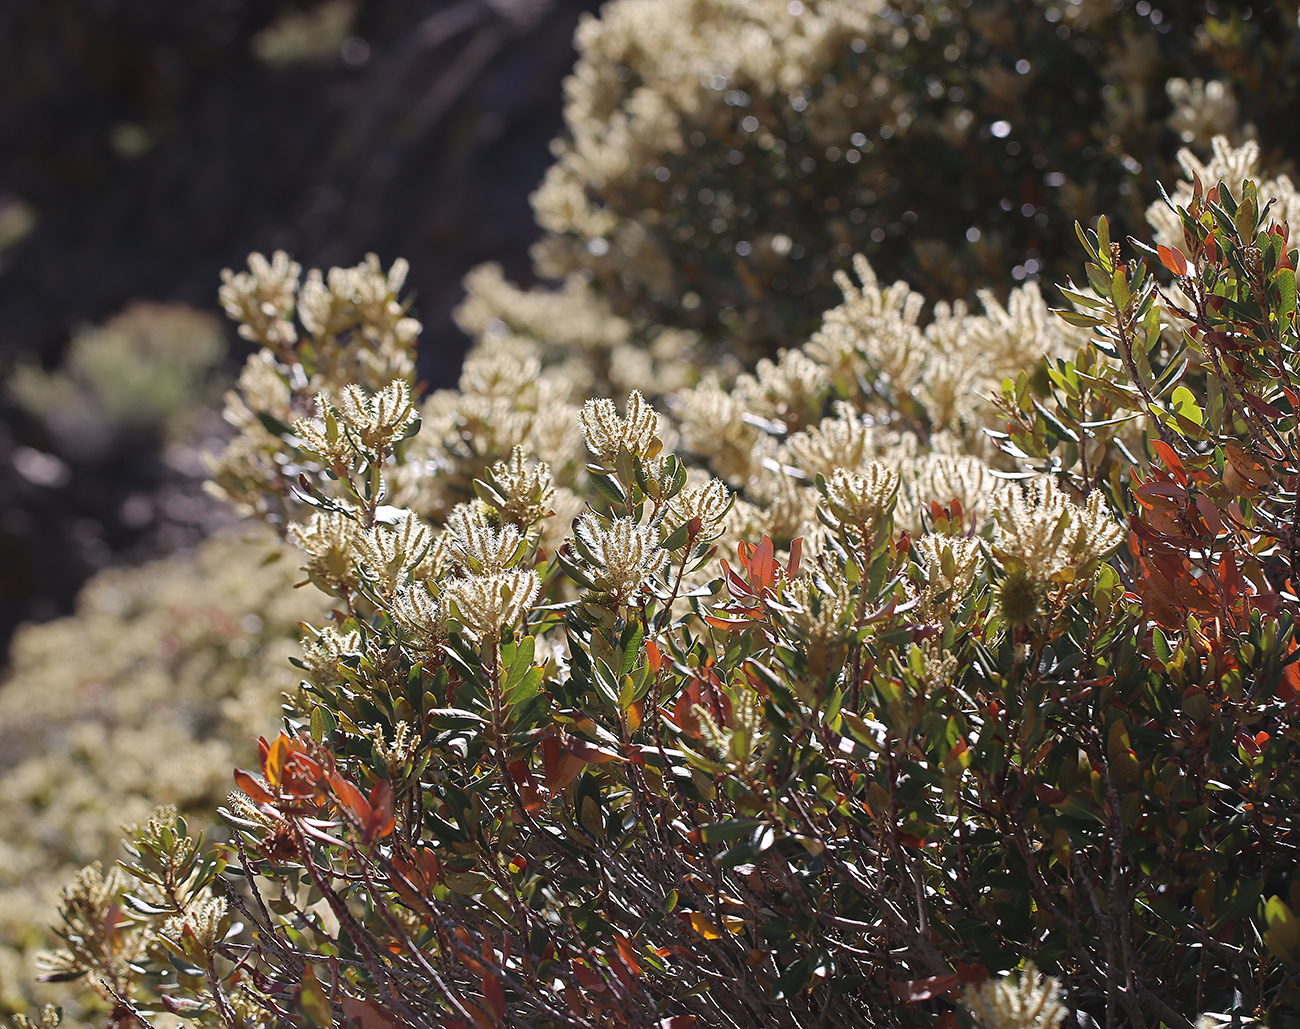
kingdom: Plantae
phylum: Tracheophyta
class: Magnoliopsida
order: Fagales
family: Fagaceae
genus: Chrysolepis
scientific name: Chrysolepis sempervirens
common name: Bush chinquapin
